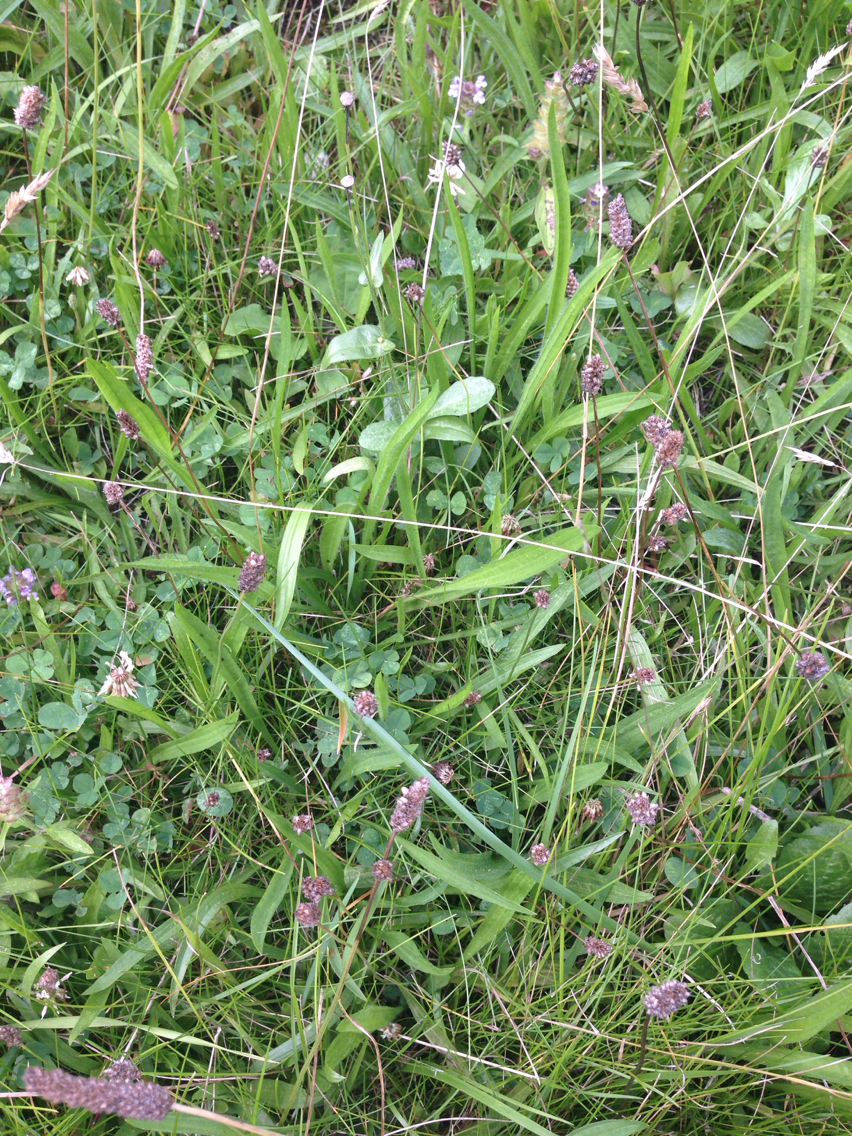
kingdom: Plantae
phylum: Tracheophyta
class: Magnoliopsida
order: Lamiales
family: Plantaginaceae
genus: Plantago
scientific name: Plantago lanceolata
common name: Ribwort plantain
